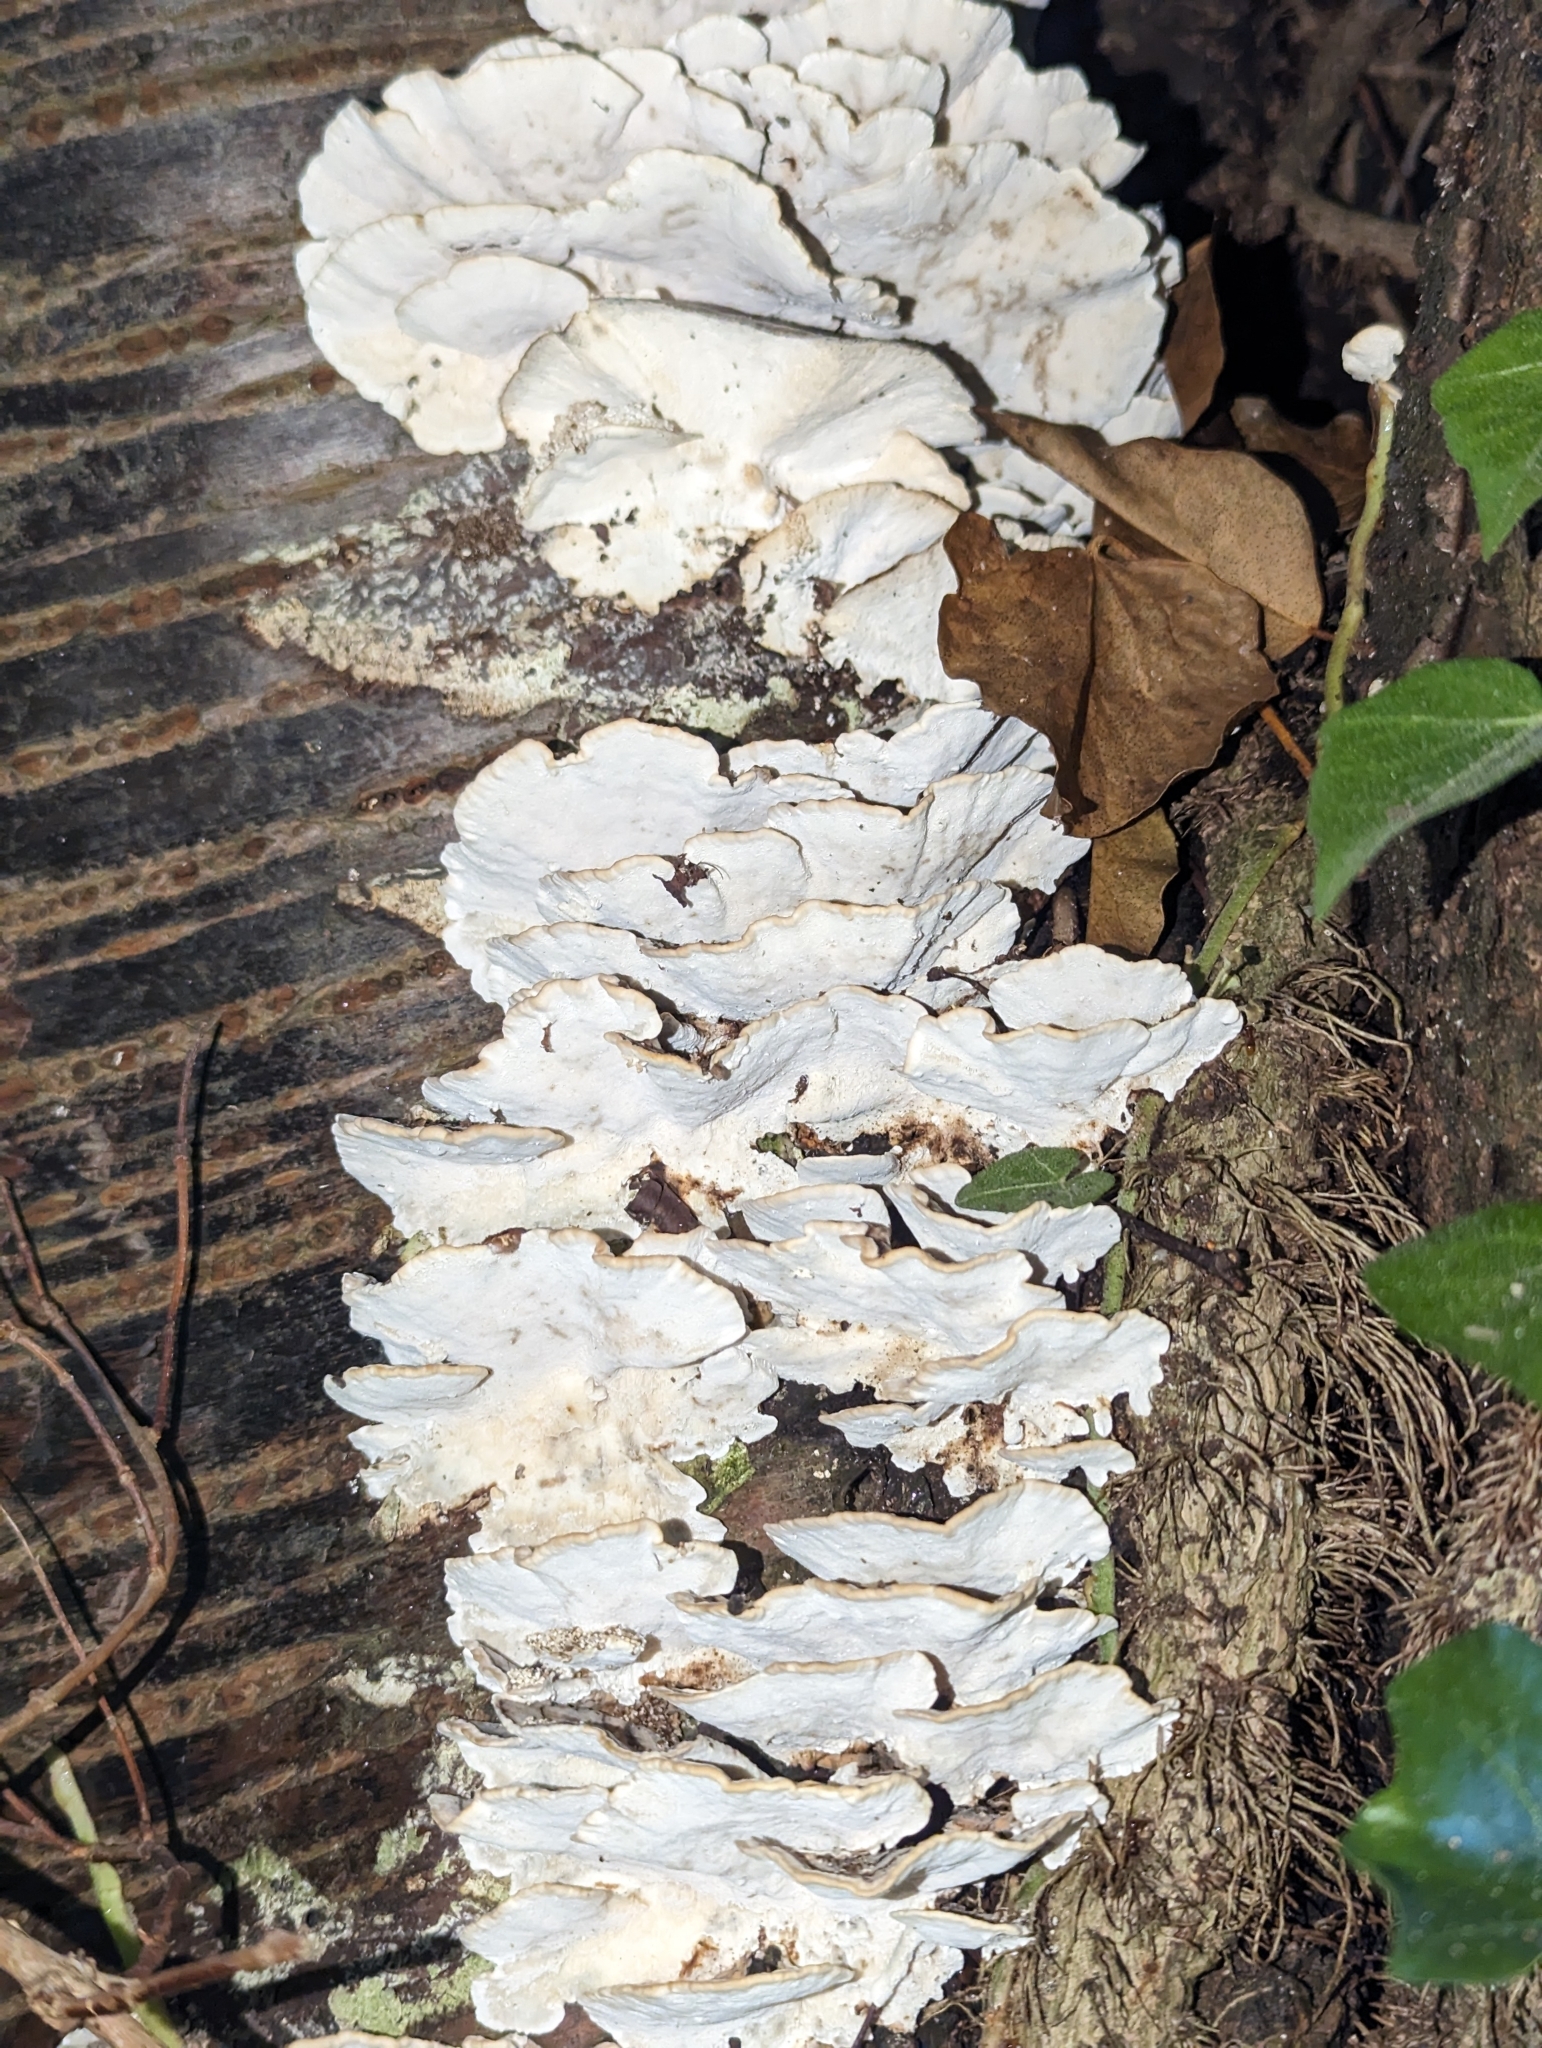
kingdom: Fungi
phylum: Basidiomycota
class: Agaricomycetes
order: Polyporales
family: Polyporaceae
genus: Trametes
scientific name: Trametes versicolor
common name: Turkeytail
